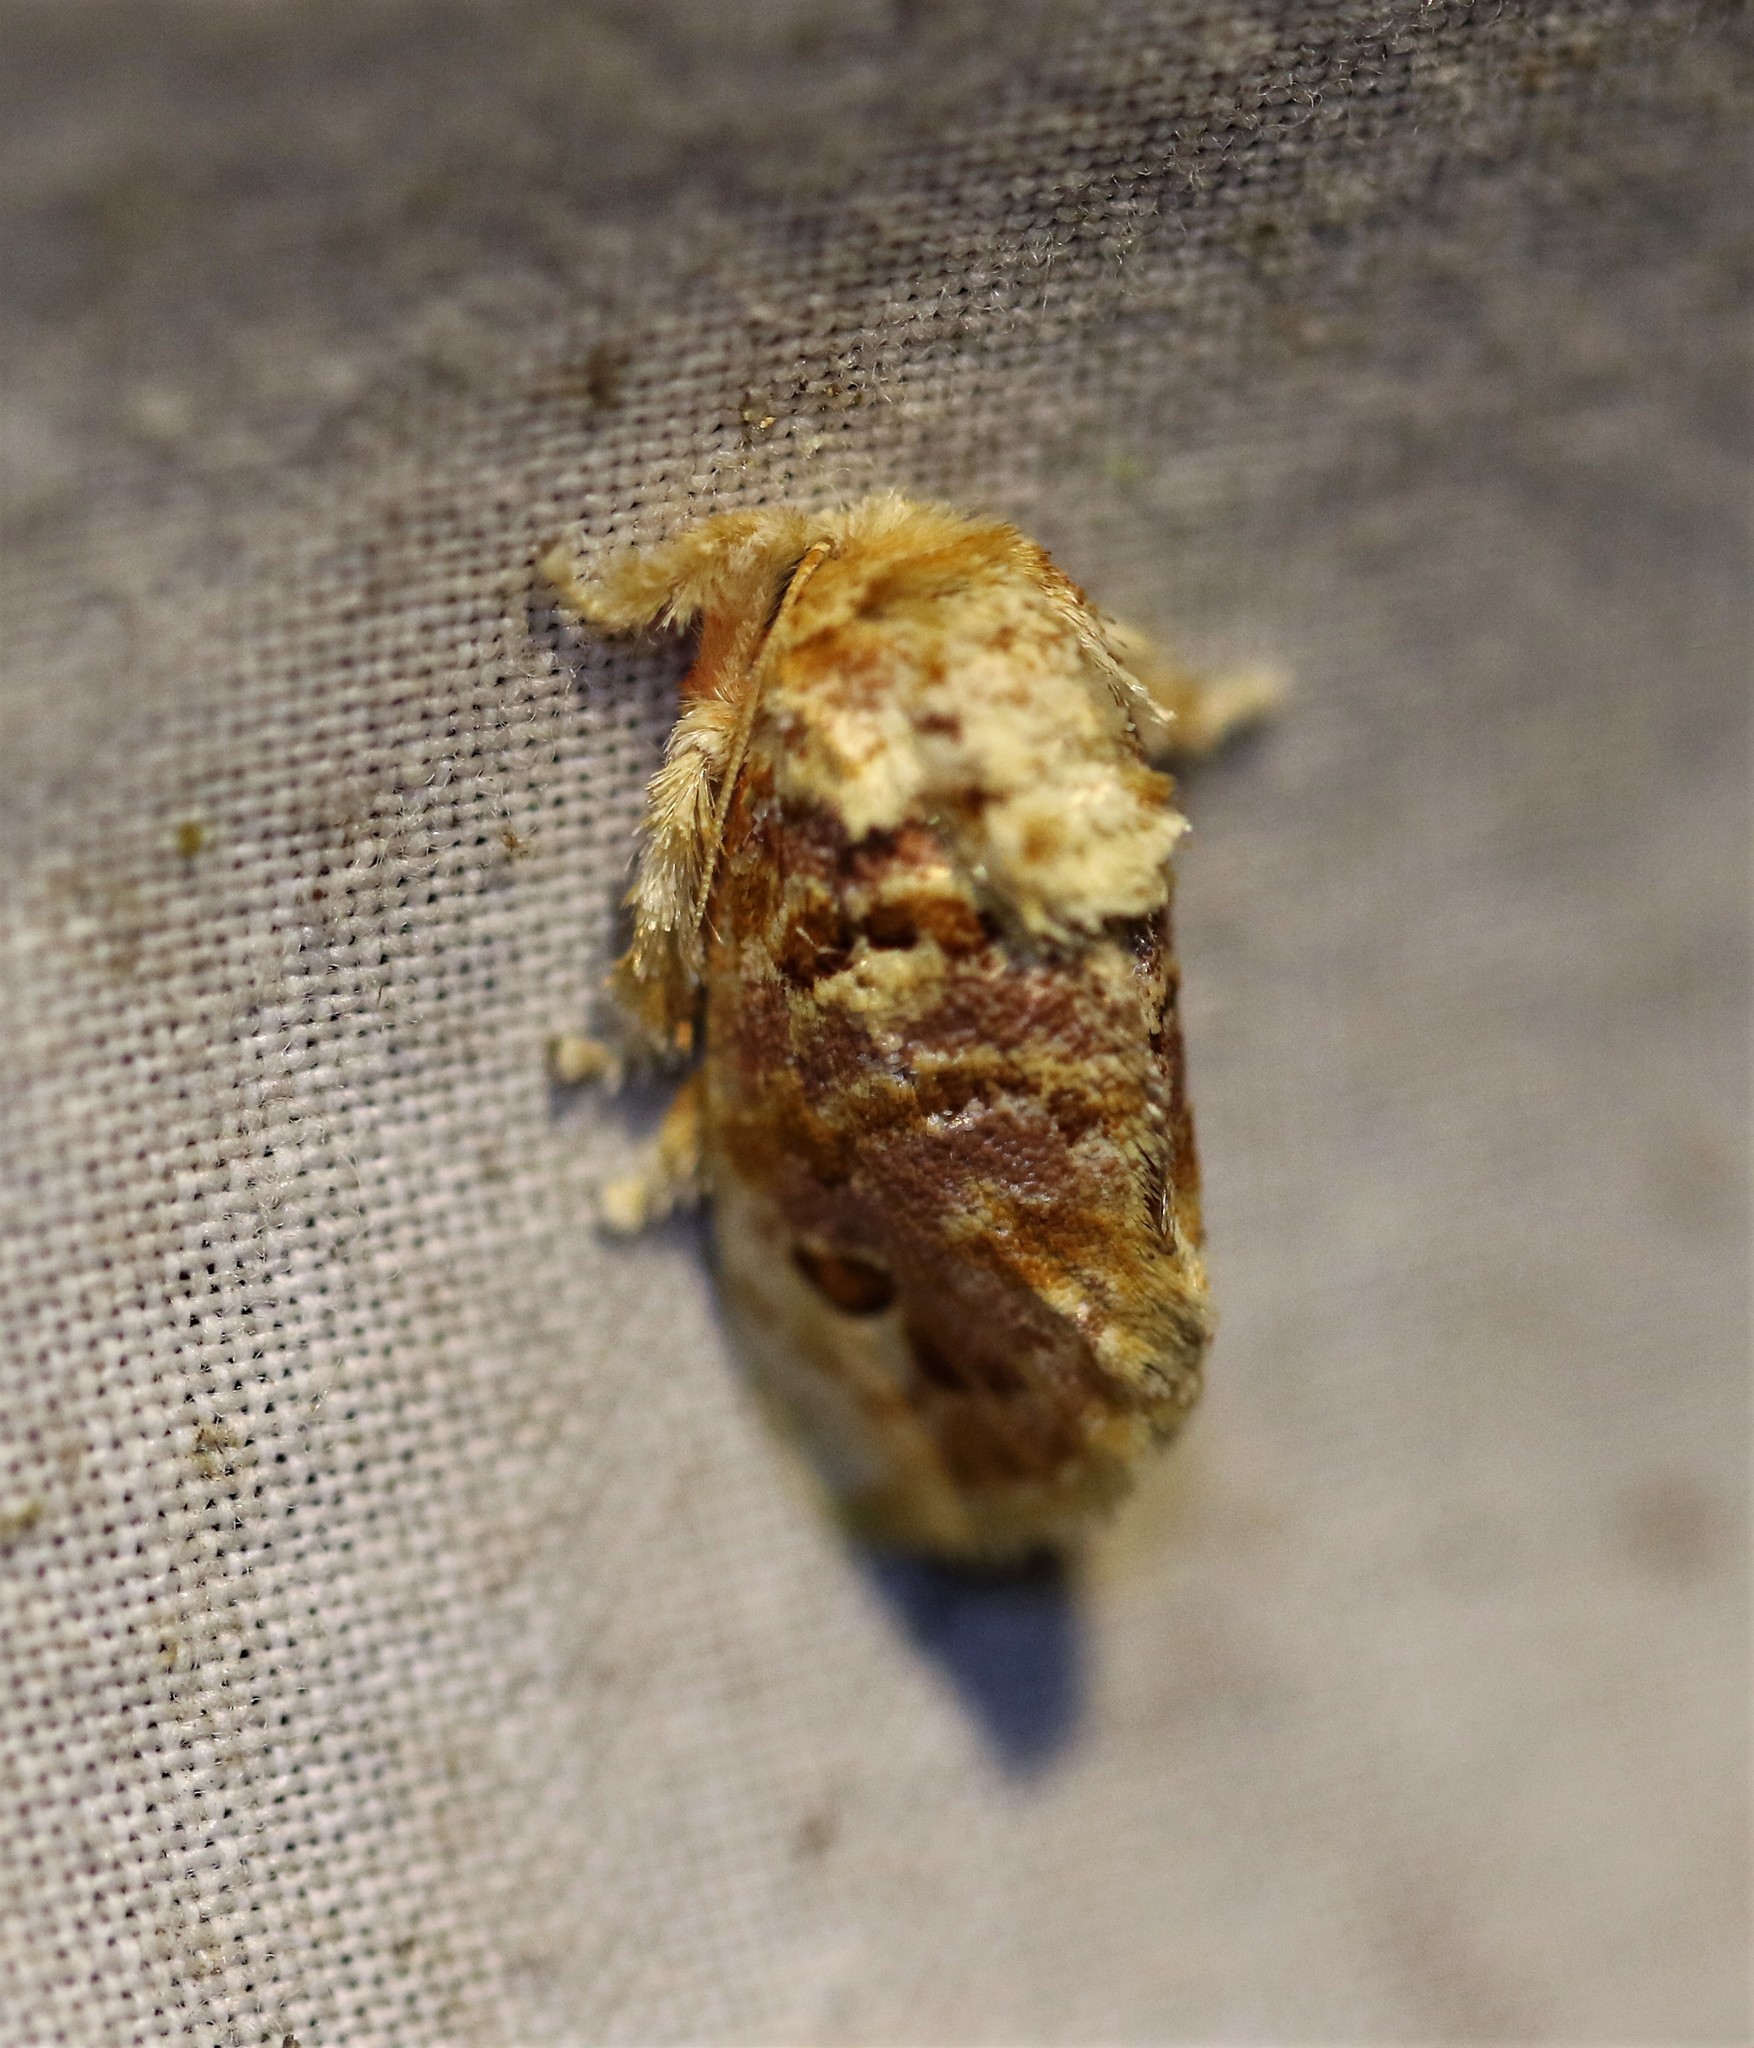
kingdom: Animalia
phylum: Arthropoda
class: Insecta
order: Lepidoptera
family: Limacodidae
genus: Euphobetron
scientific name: Euphobetron moorei
